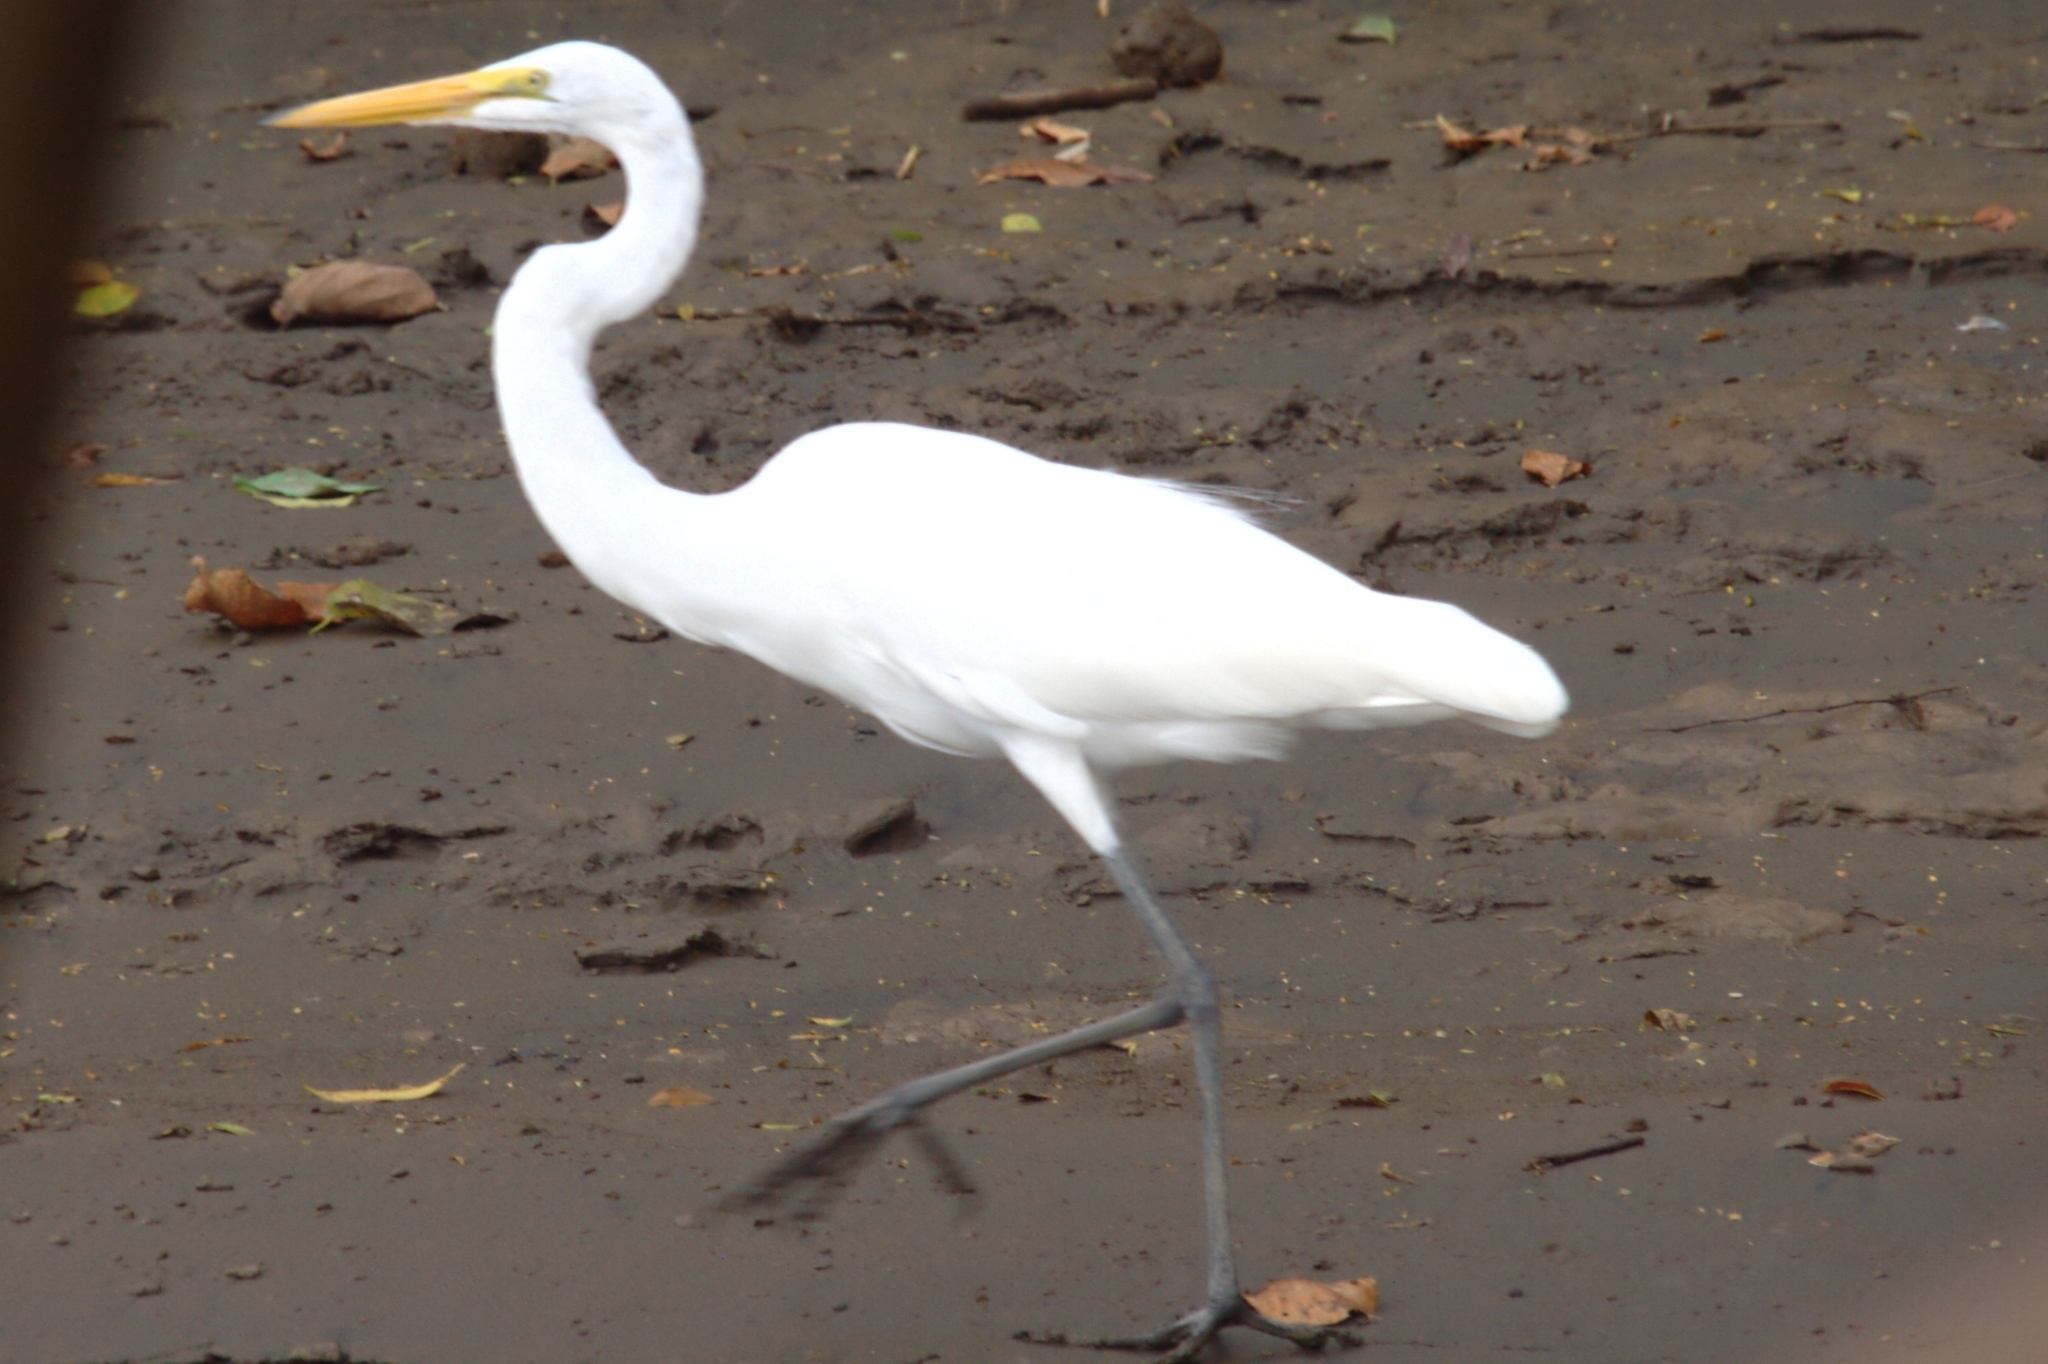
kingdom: Animalia
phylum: Chordata
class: Aves
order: Pelecaniformes
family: Ardeidae
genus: Ardea
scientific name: Ardea alba
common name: Great egret
